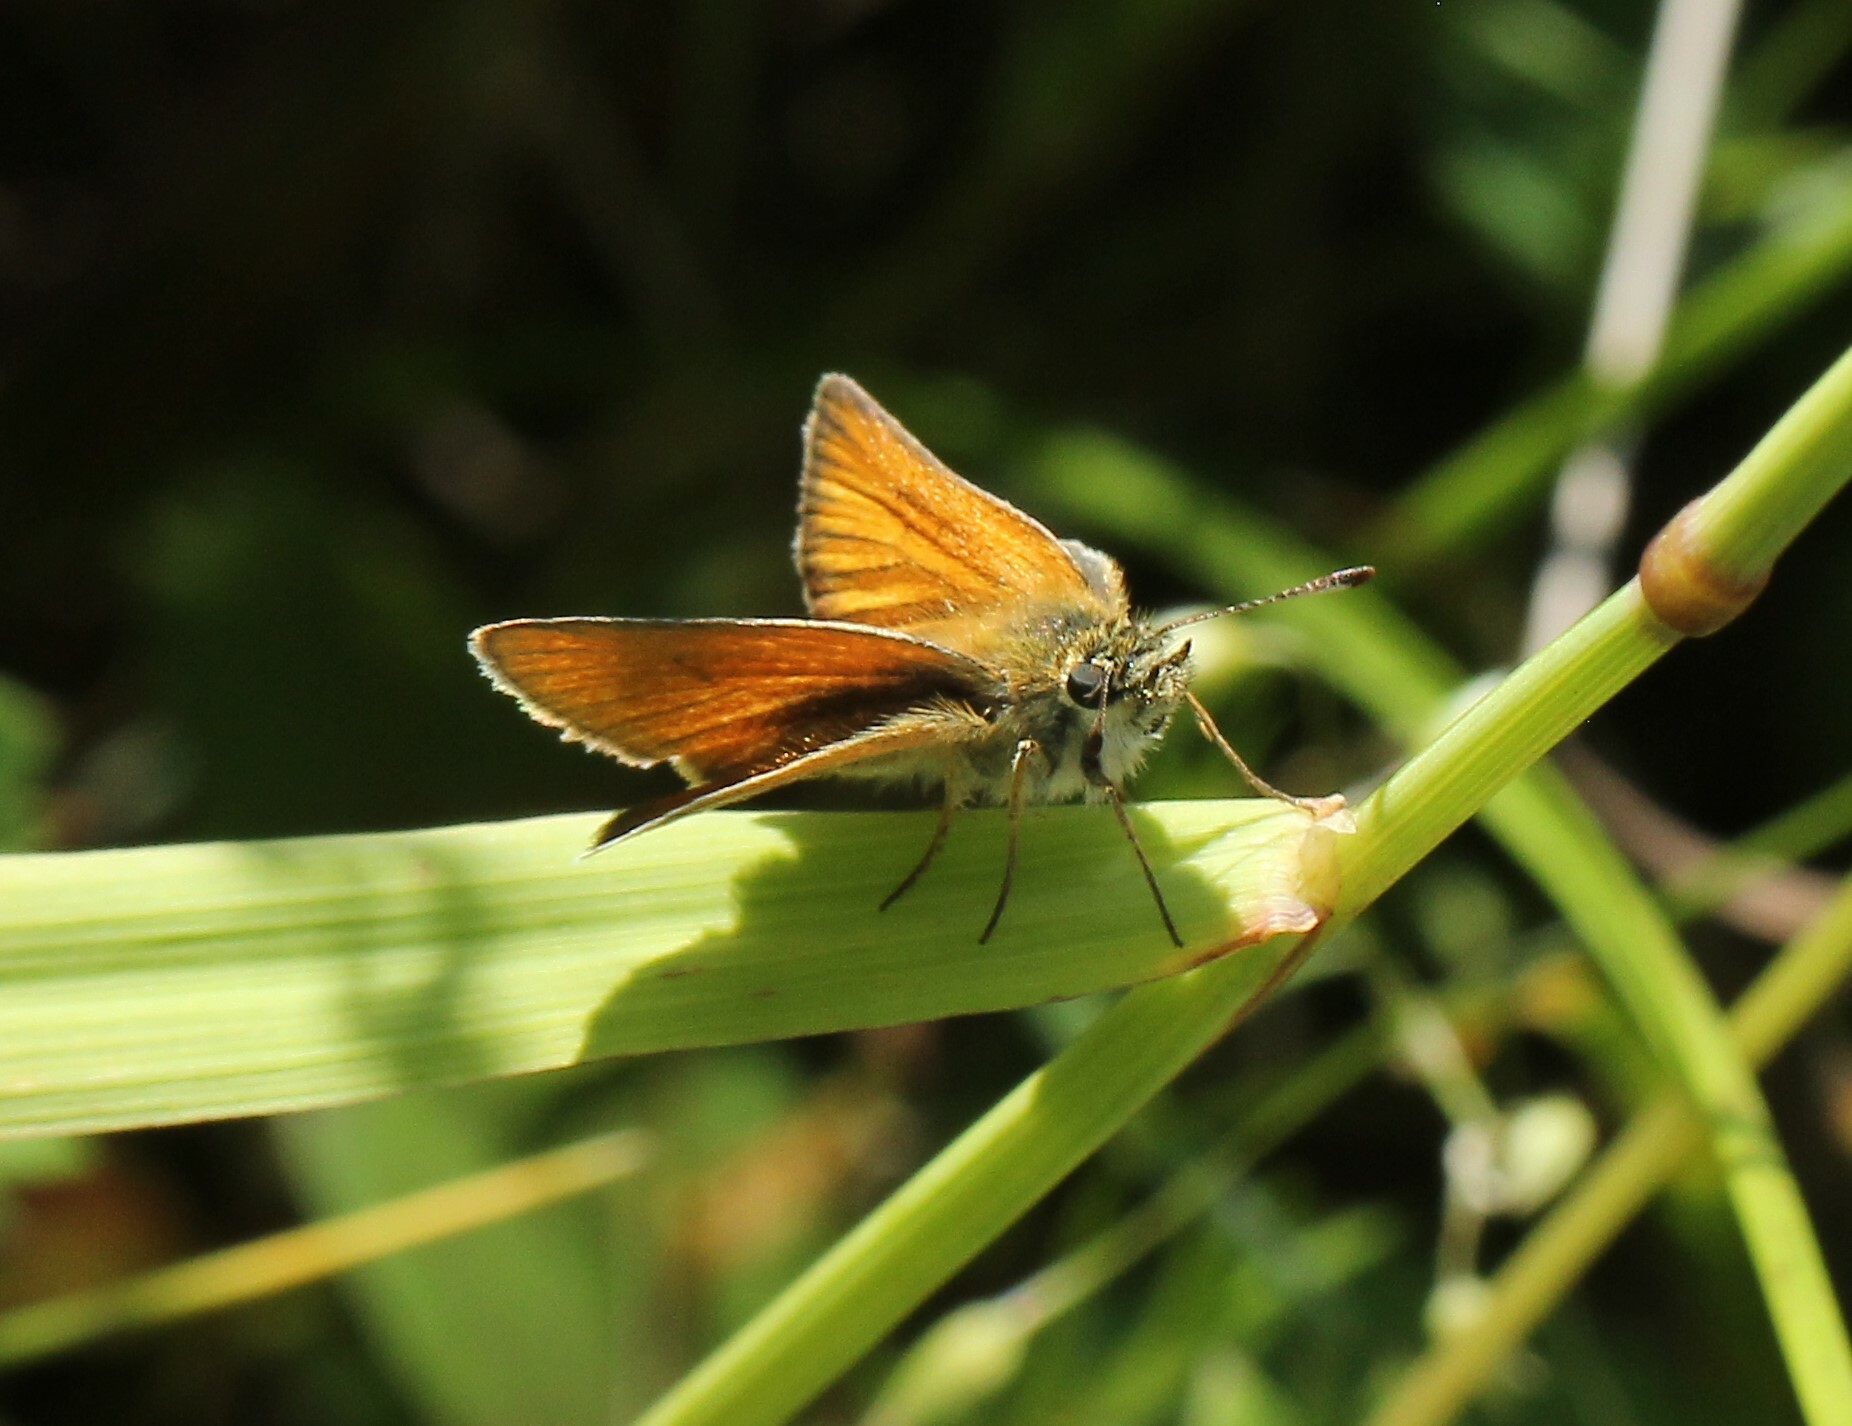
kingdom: Animalia
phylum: Arthropoda
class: Insecta
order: Lepidoptera
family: Hesperiidae
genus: Thymelicus
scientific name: Thymelicus lineola
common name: Essex skipper
